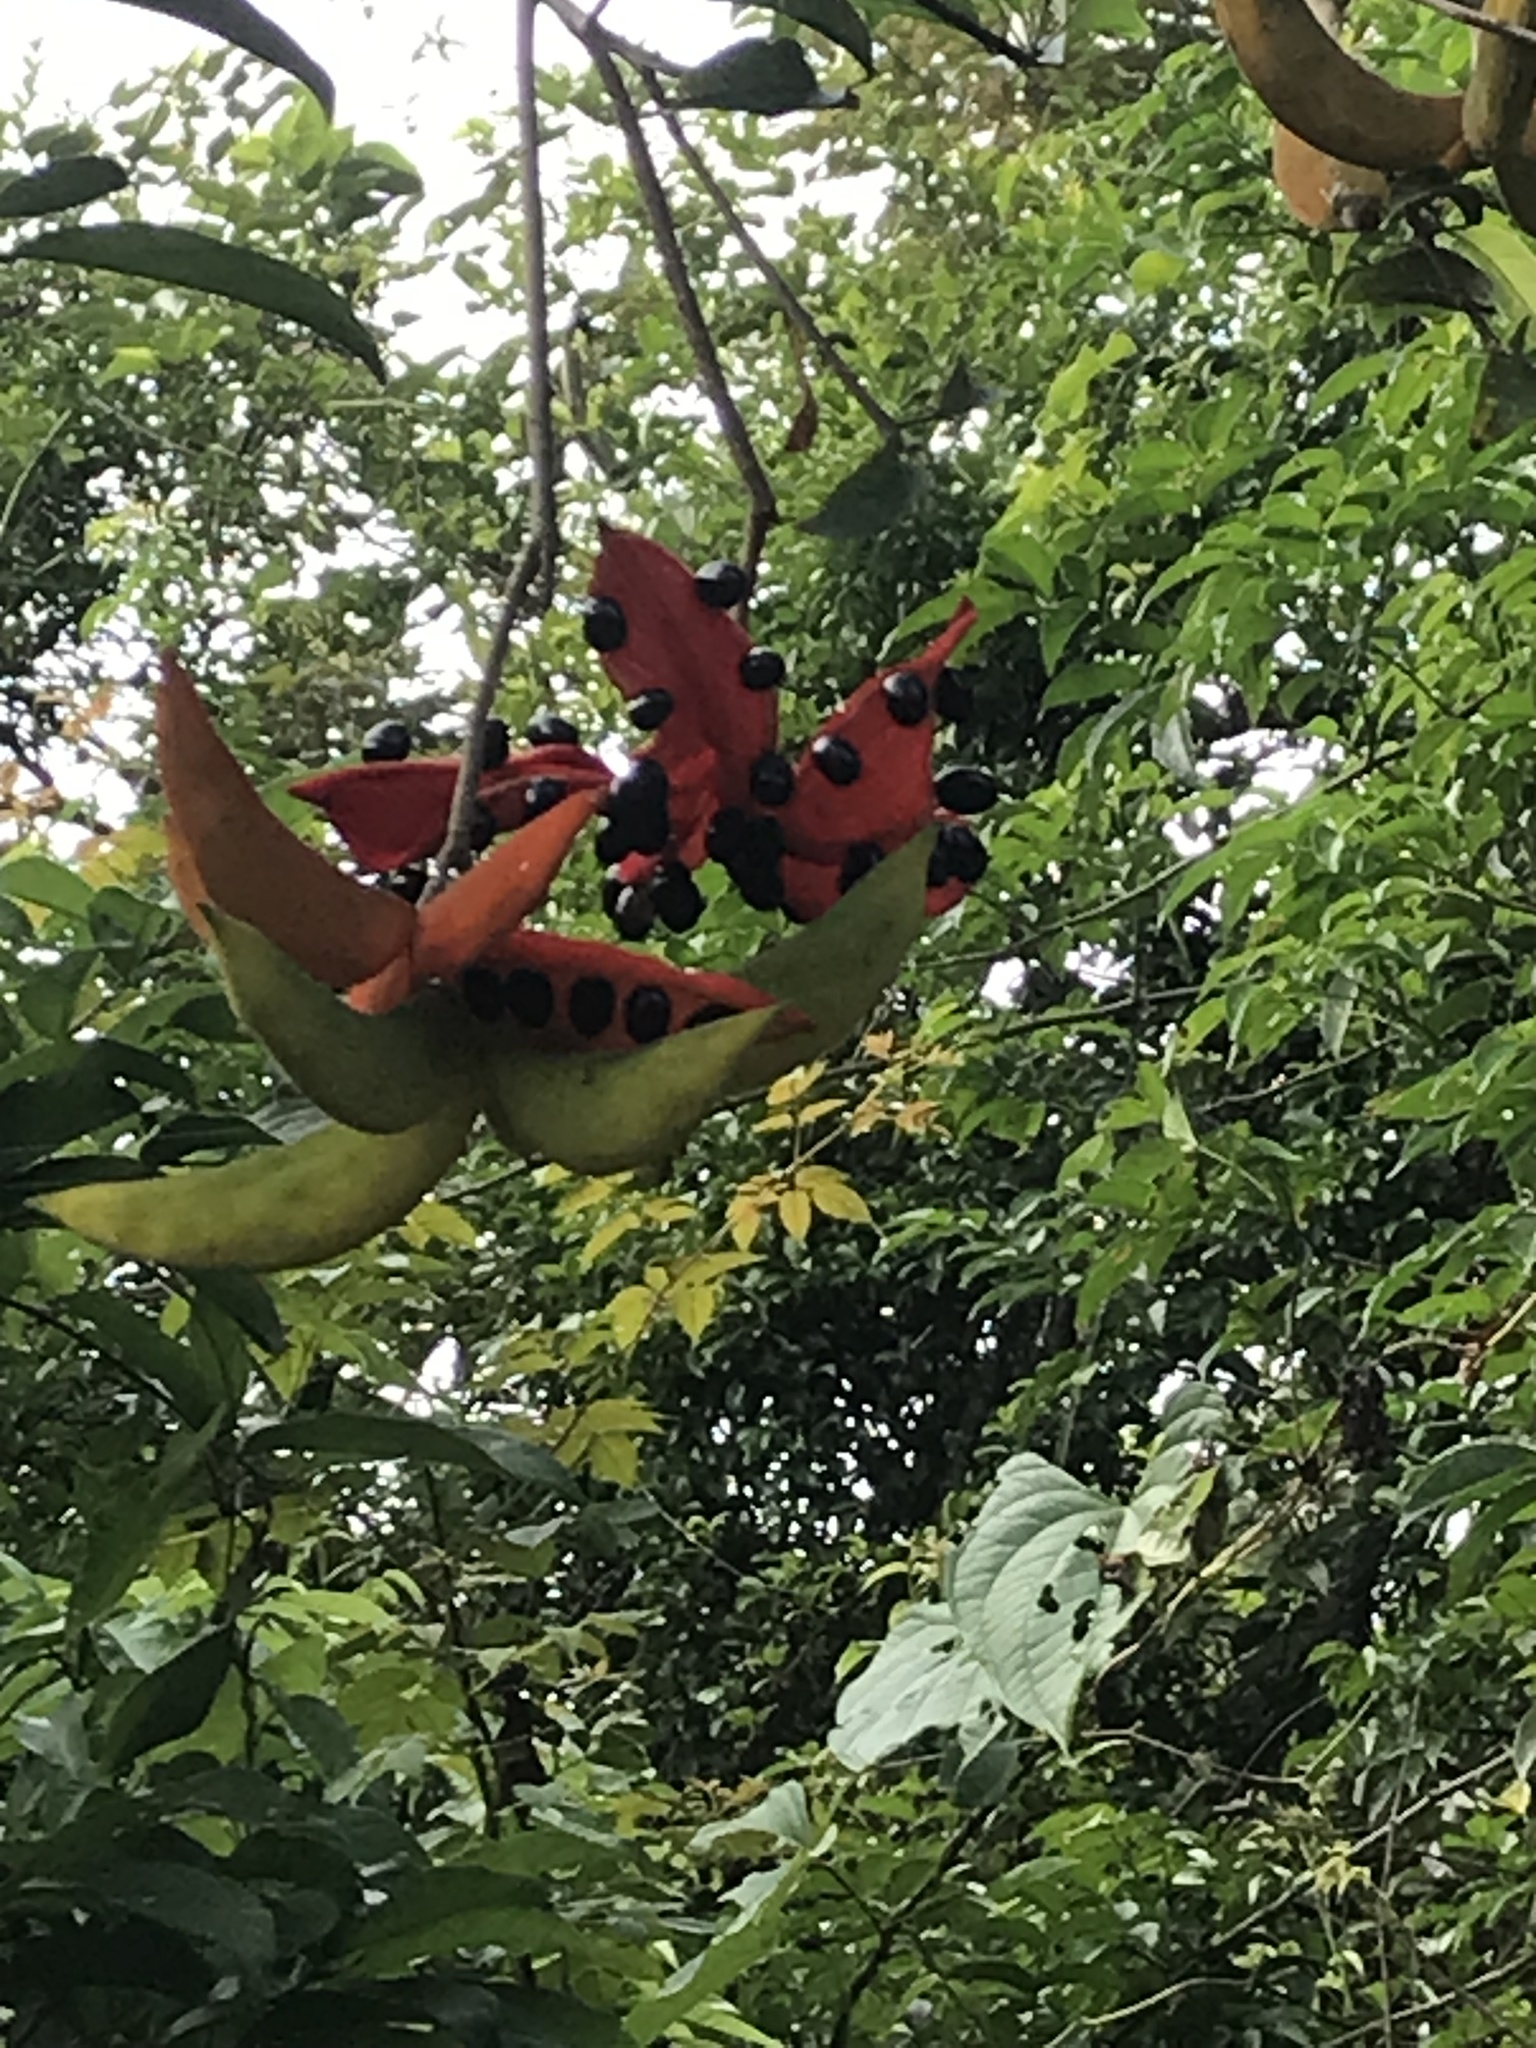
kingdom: Plantae
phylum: Tracheophyta
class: Magnoliopsida
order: Malvales
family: Malvaceae
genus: Sterculia
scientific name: Sterculia lanceolata
